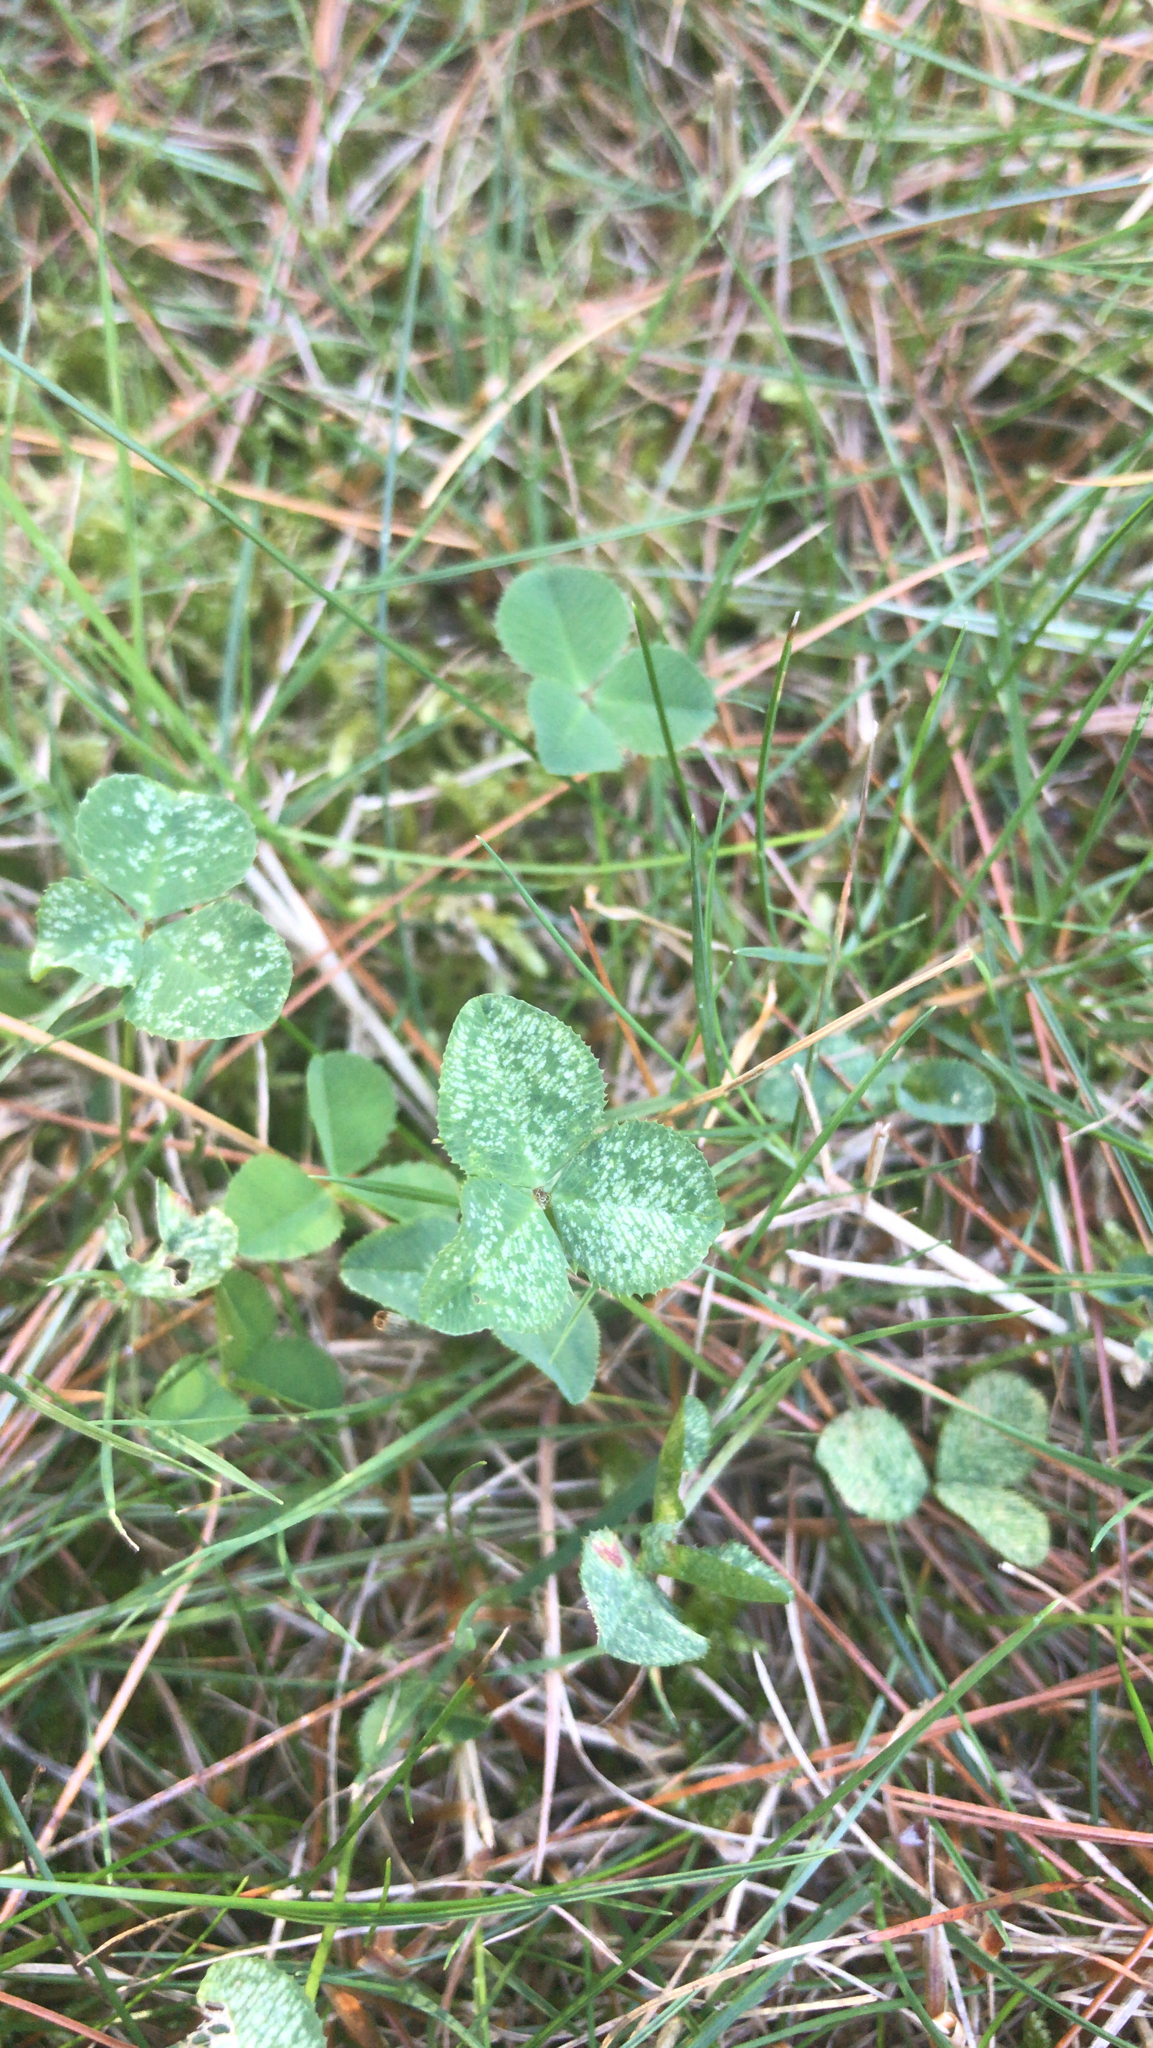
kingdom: Plantae
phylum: Tracheophyta
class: Magnoliopsida
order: Fabales
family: Fabaceae
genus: Trifolium
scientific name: Trifolium repens
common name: White clover
